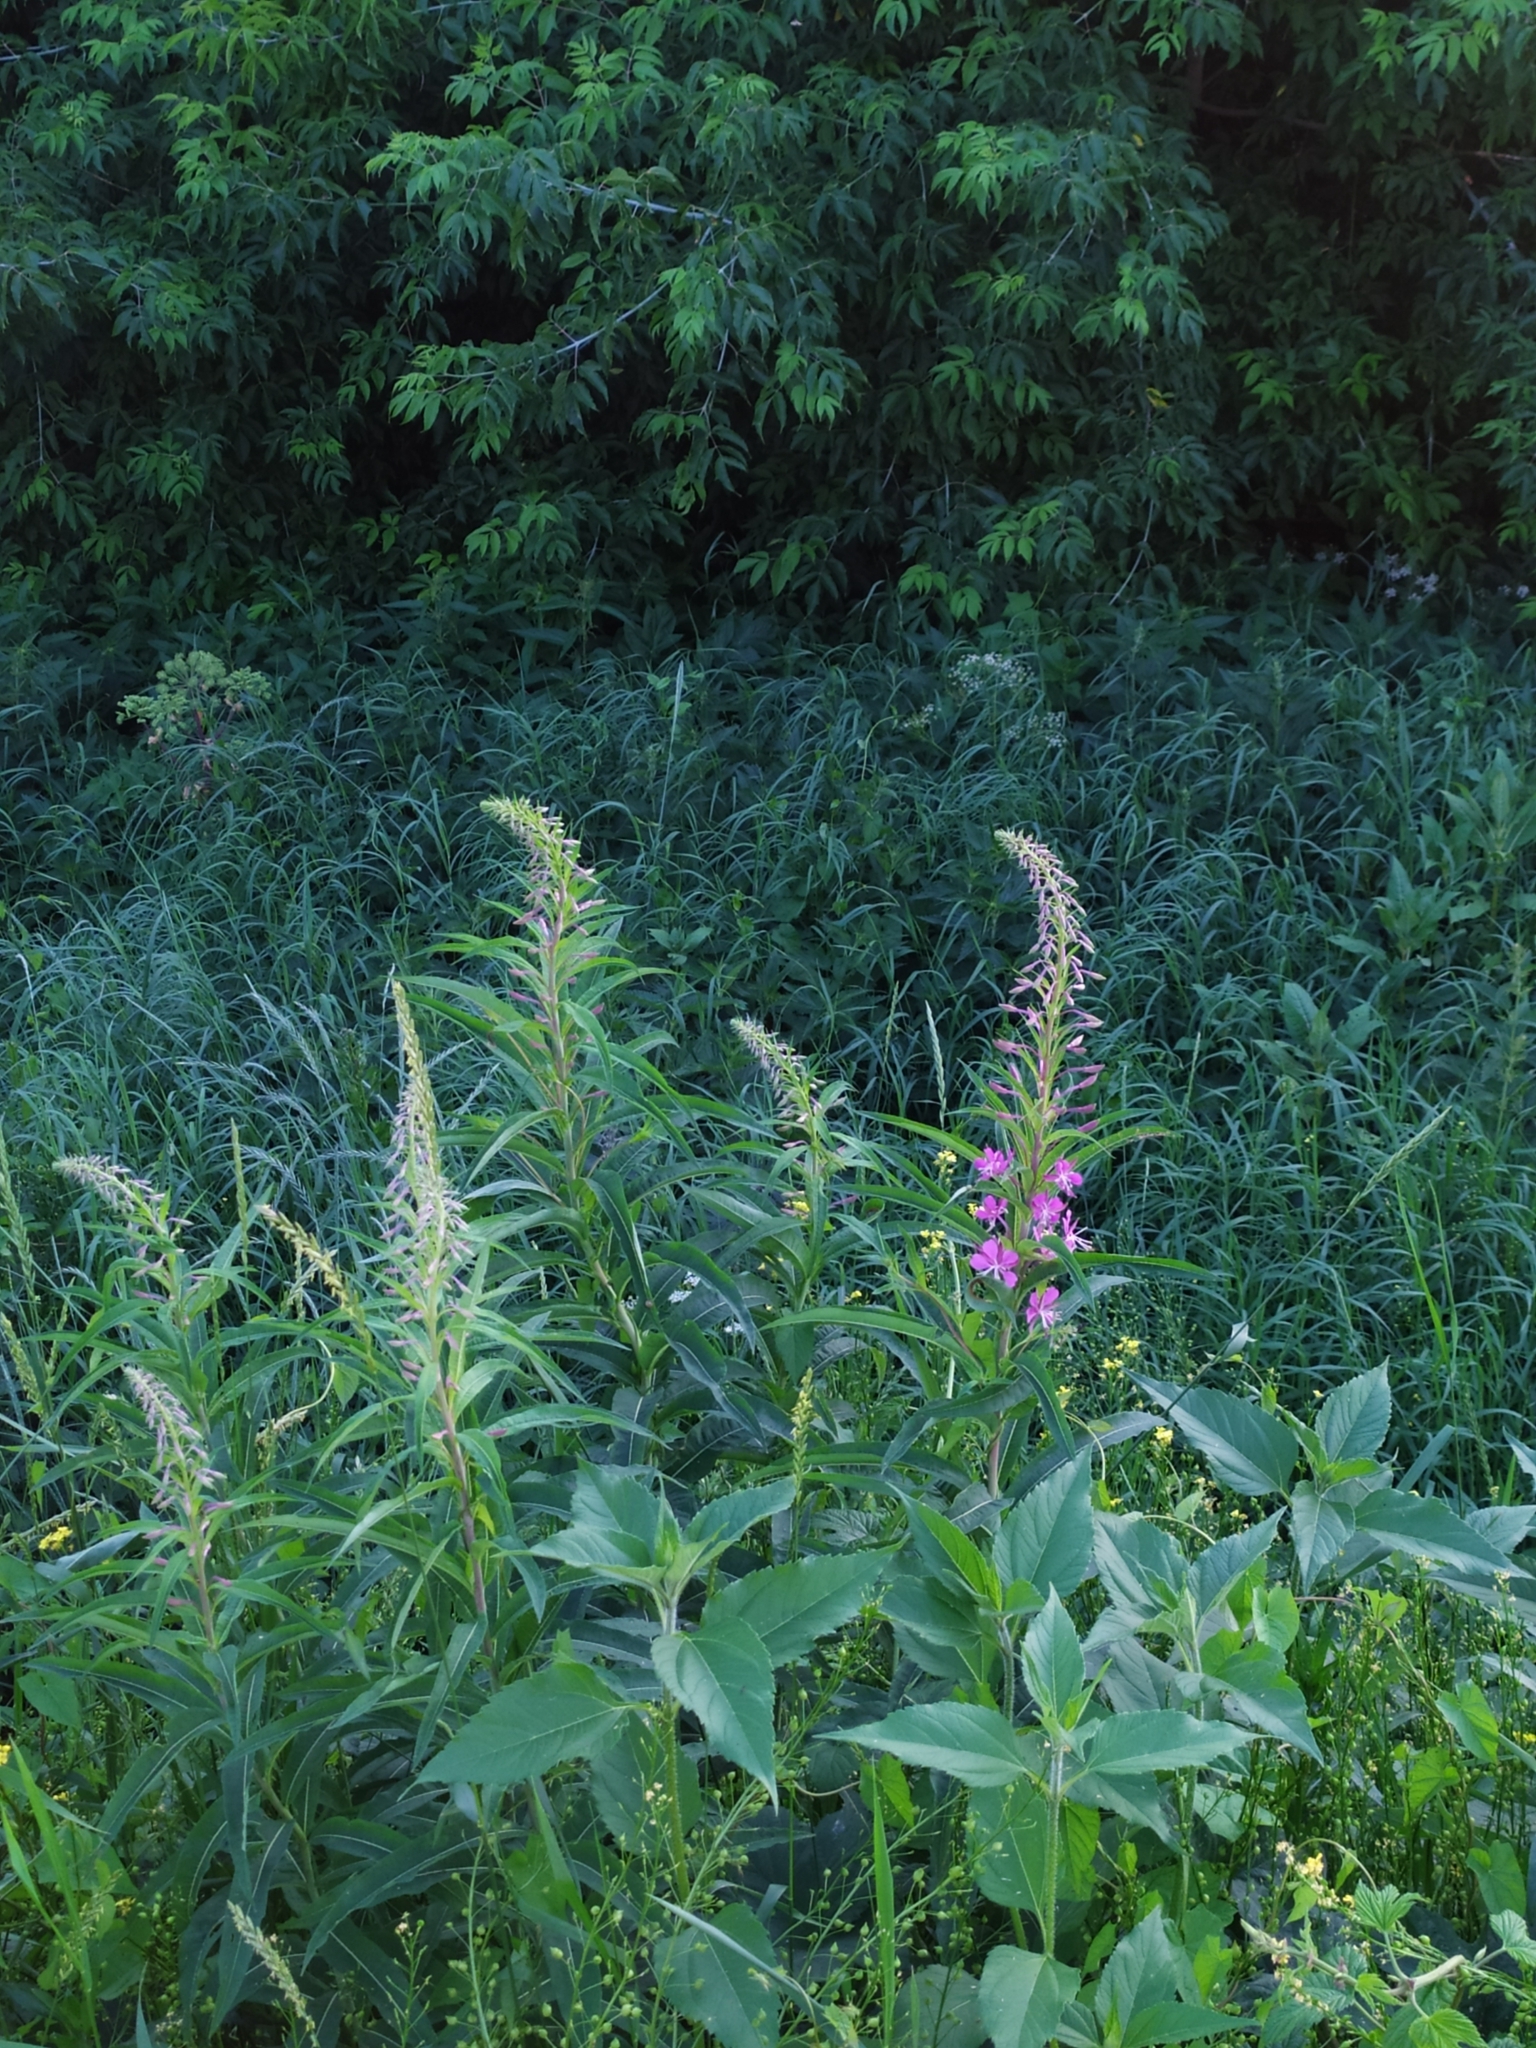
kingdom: Plantae
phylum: Tracheophyta
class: Magnoliopsida
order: Myrtales
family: Onagraceae
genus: Chamaenerion
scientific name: Chamaenerion angustifolium
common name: Fireweed
